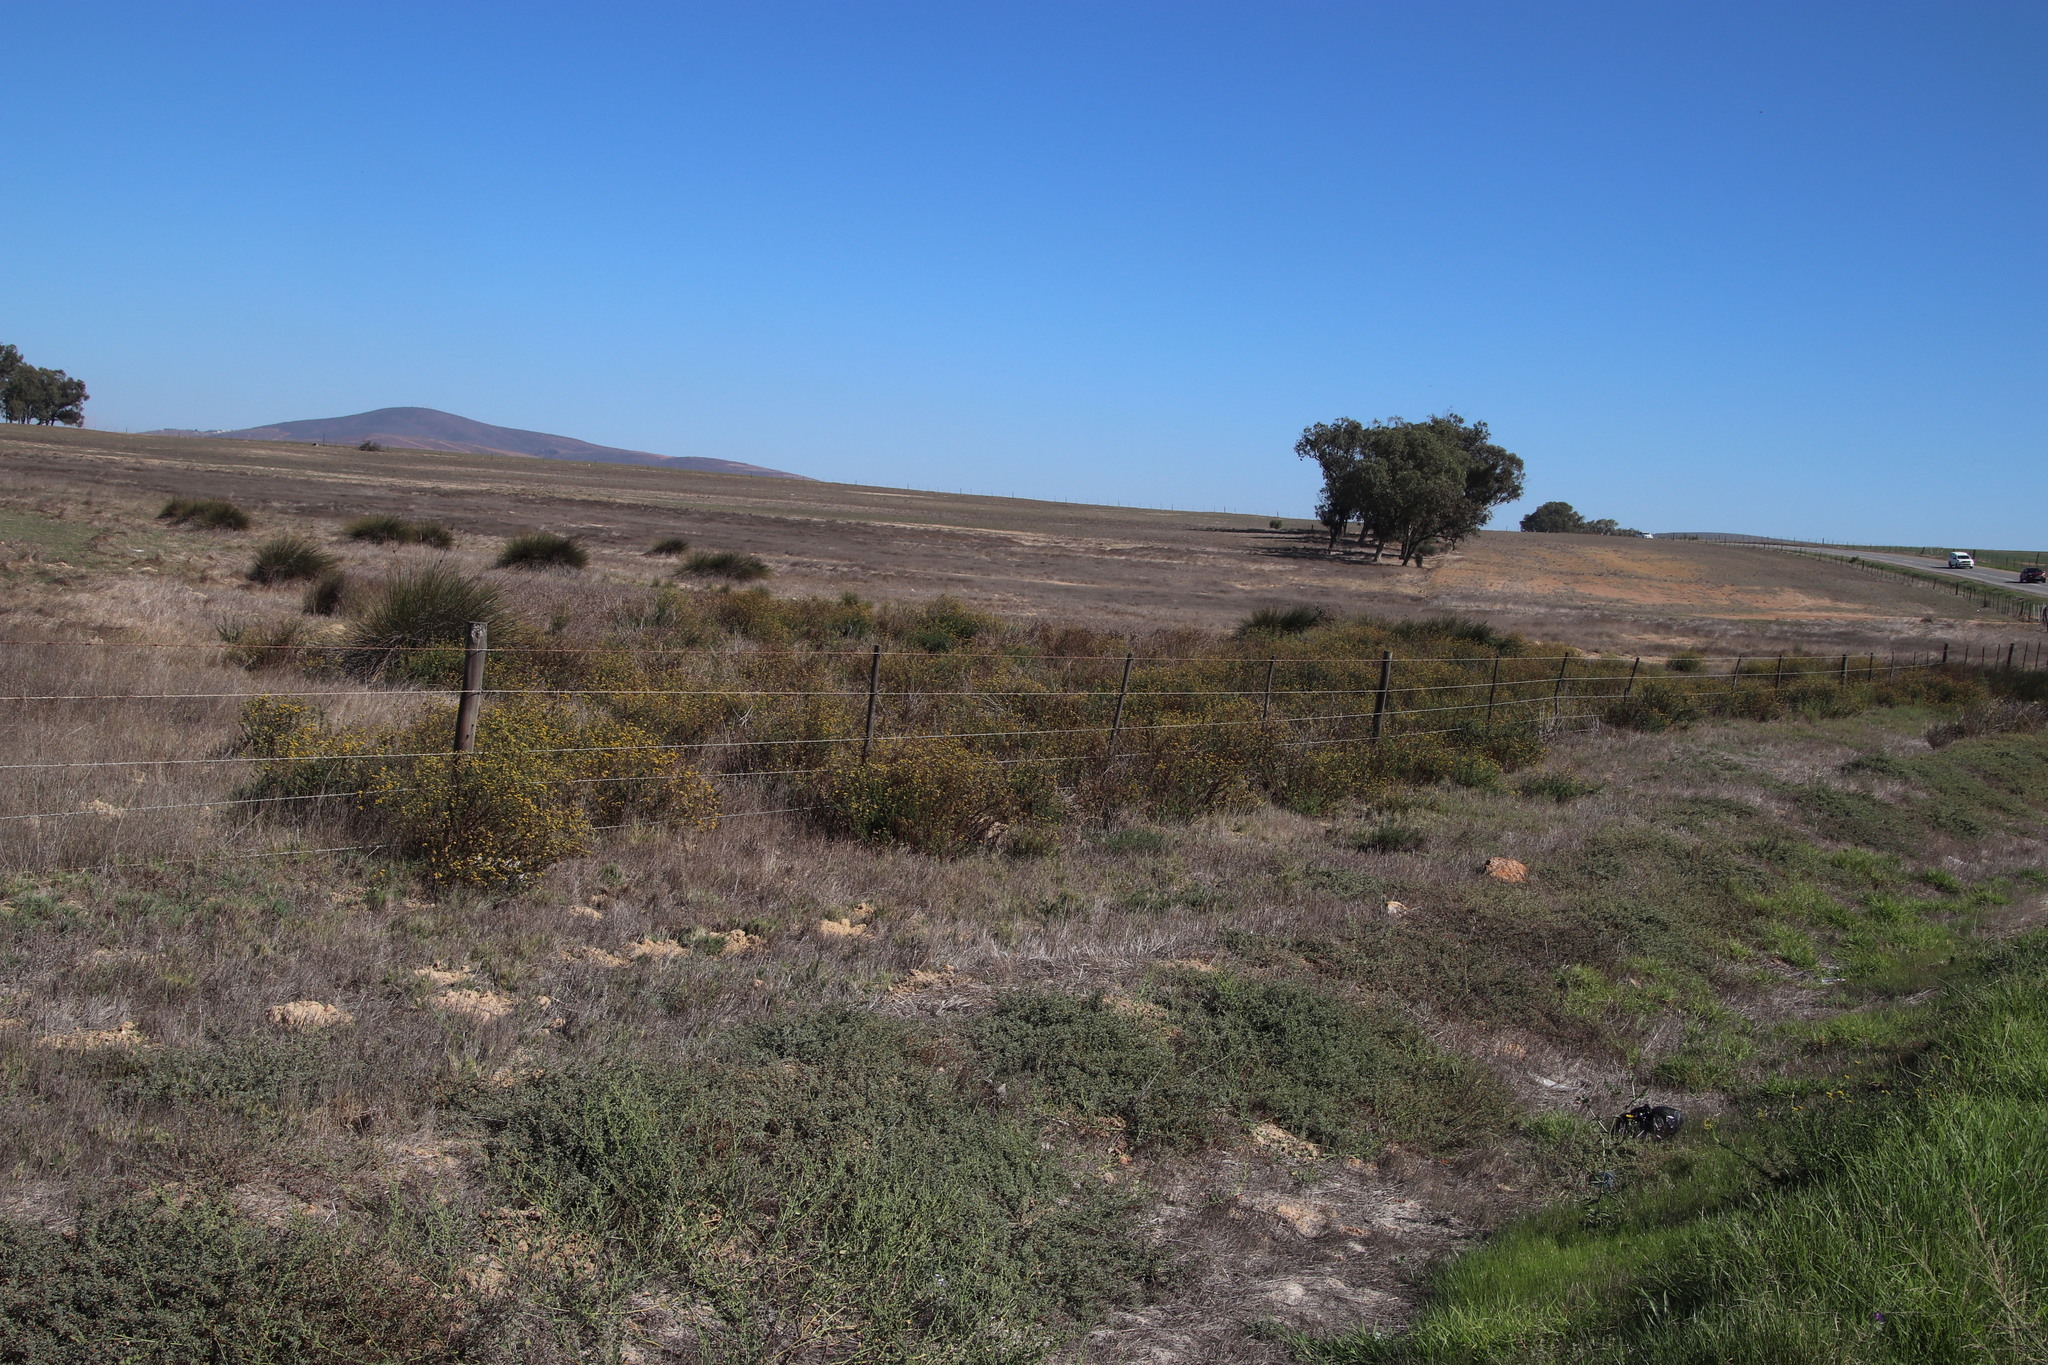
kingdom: Plantae
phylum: Tracheophyta
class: Liliopsida
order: Poales
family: Juncaceae
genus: Juncus
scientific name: Juncus kraussii
